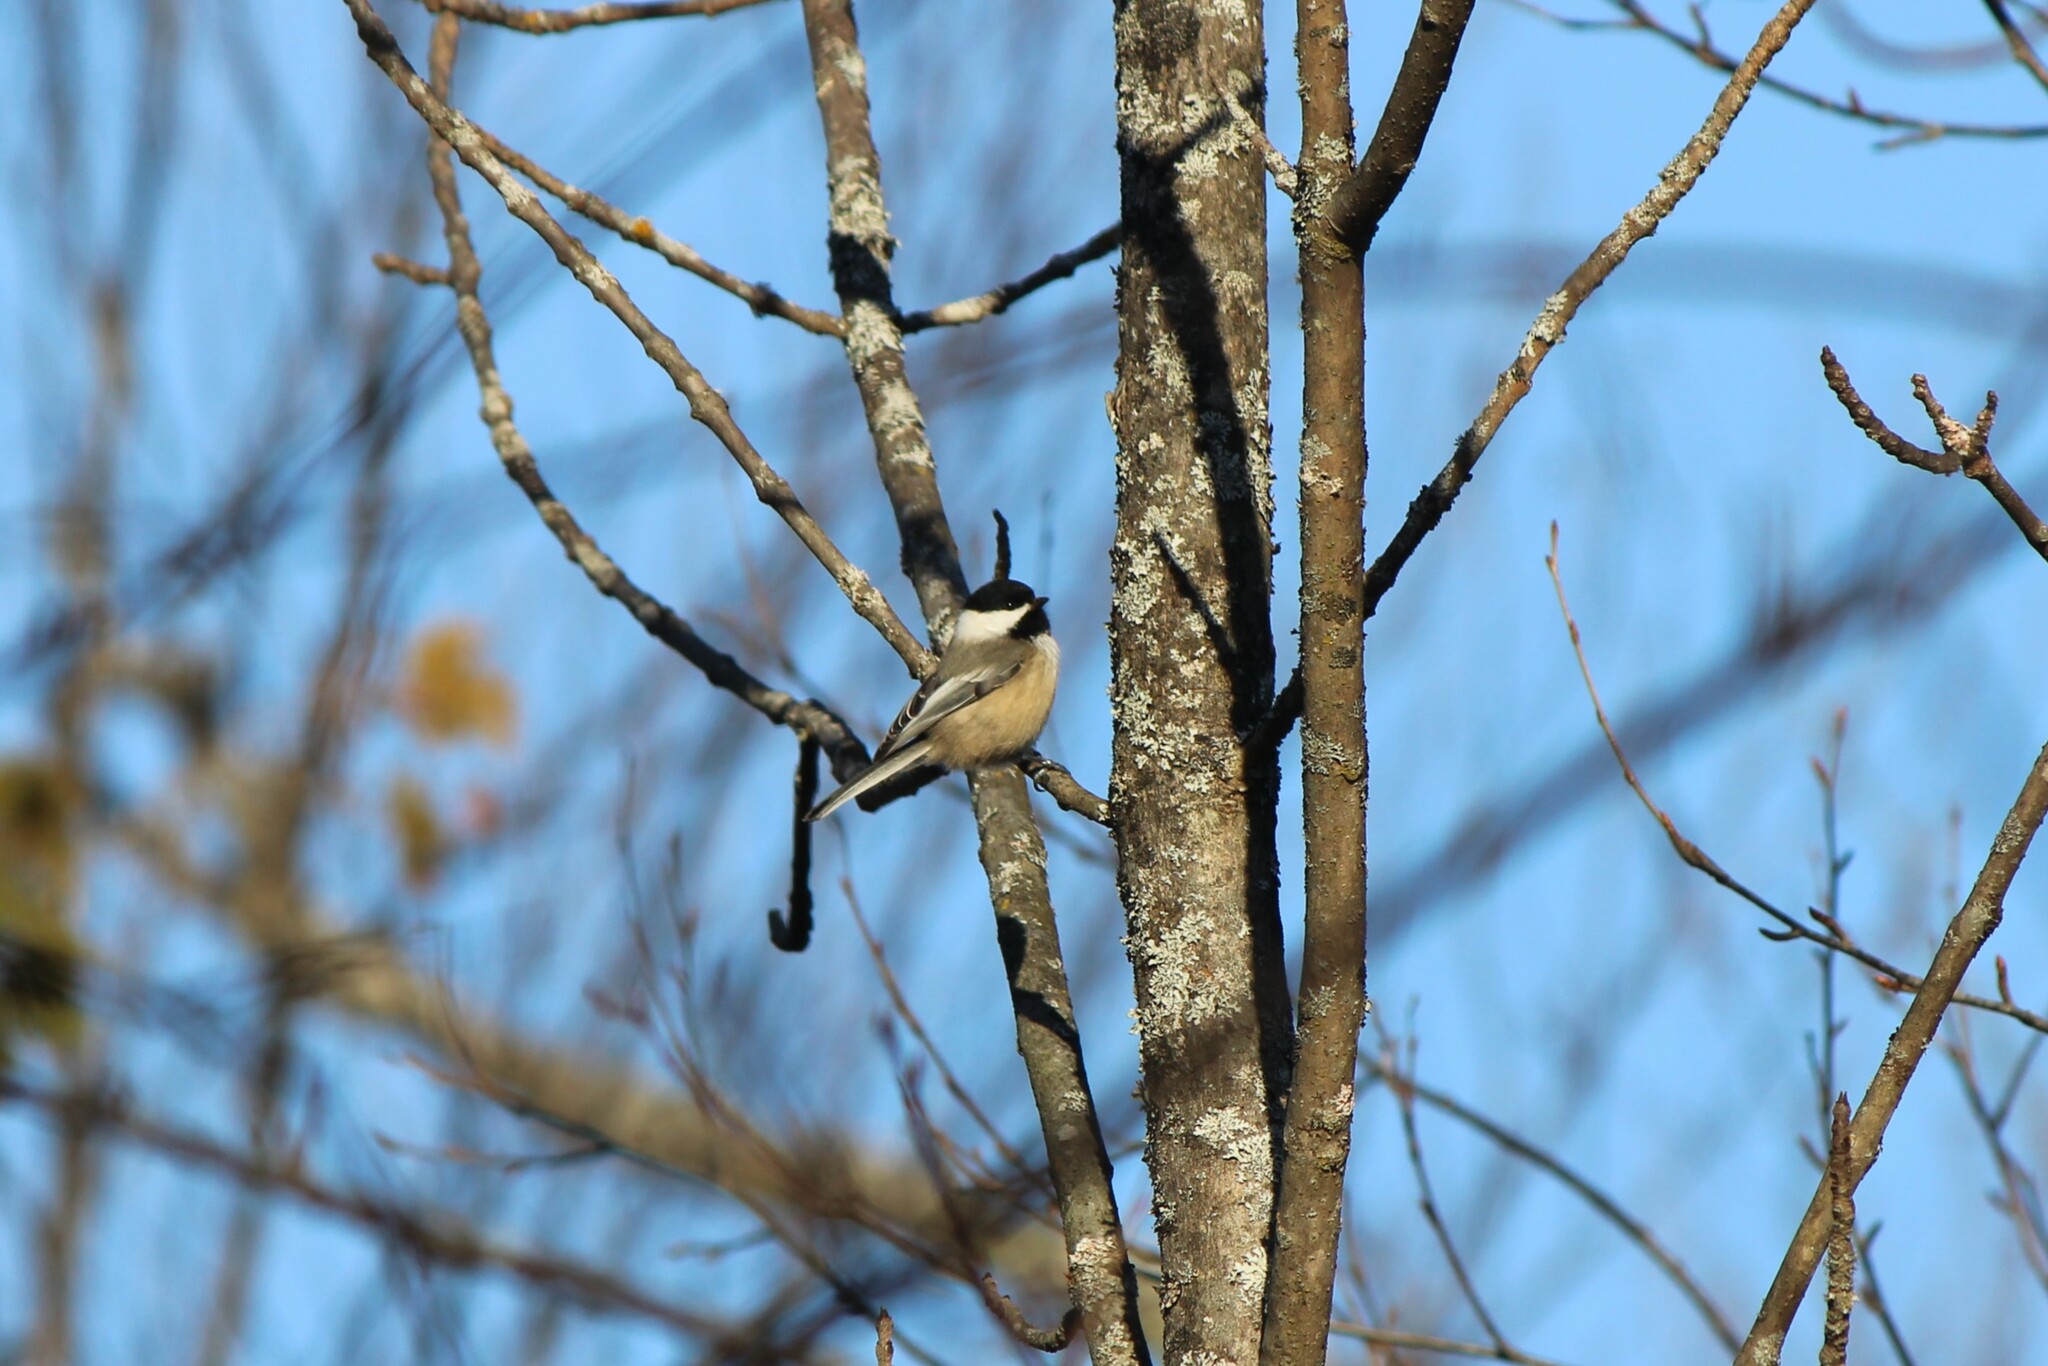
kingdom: Animalia
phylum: Chordata
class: Aves
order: Passeriformes
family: Paridae
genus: Poecile
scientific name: Poecile atricapillus
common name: Black-capped chickadee
